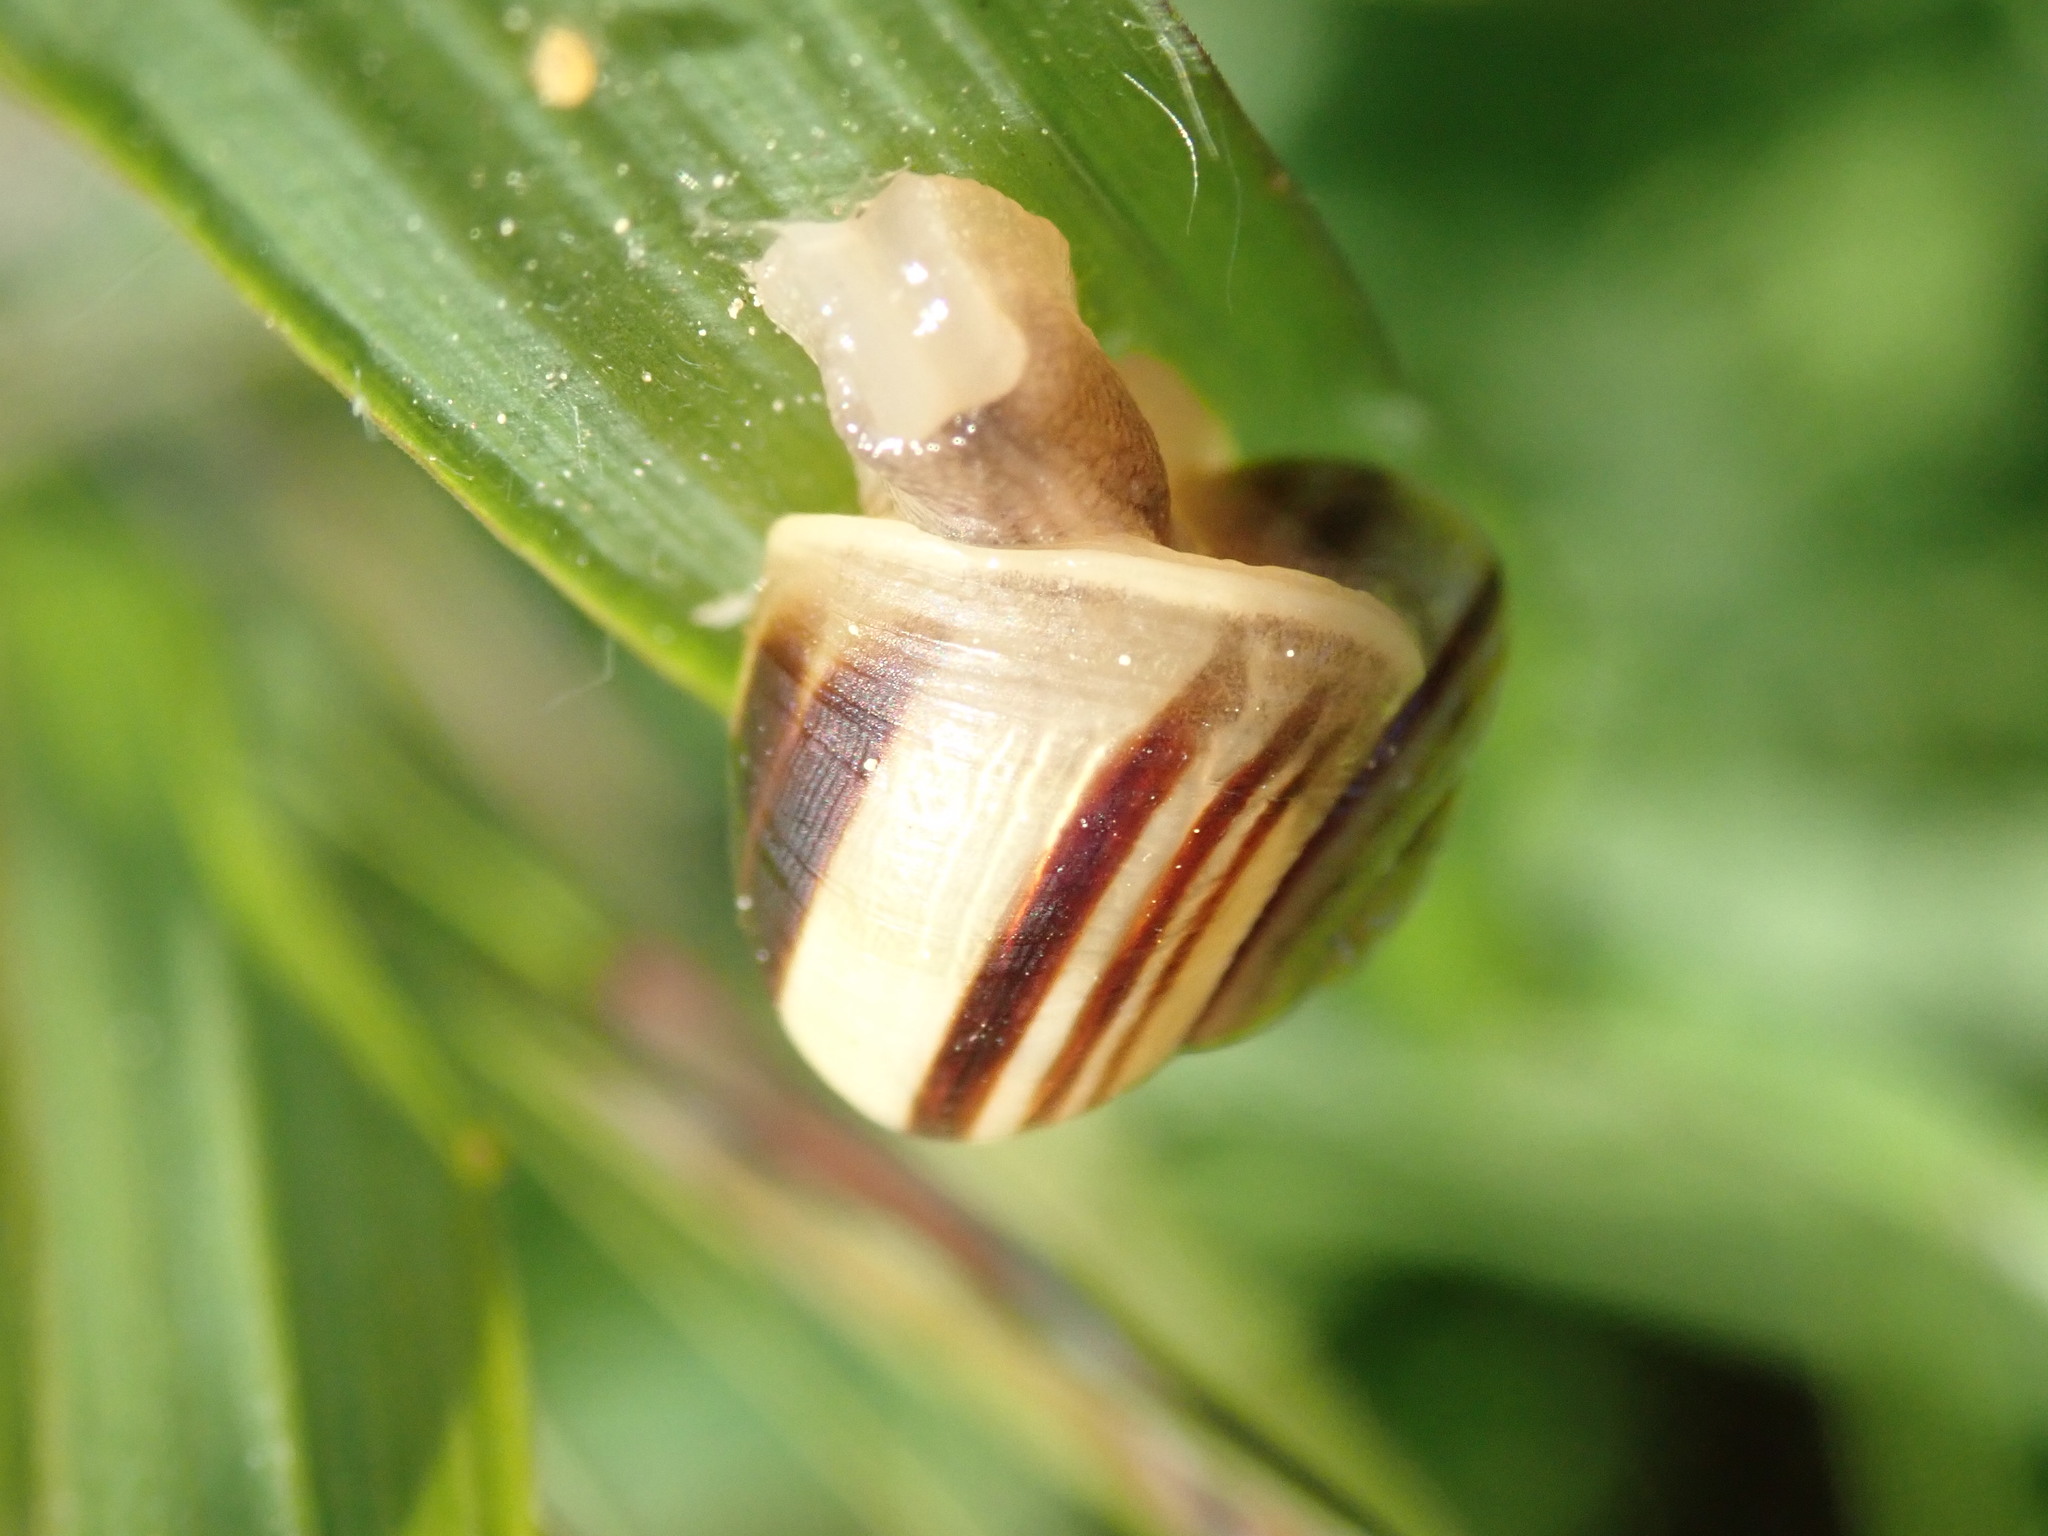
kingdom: Animalia
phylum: Mollusca
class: Gastropoda
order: Stylommatophora
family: Helicidae
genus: Cepaea
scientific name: Cepaea
